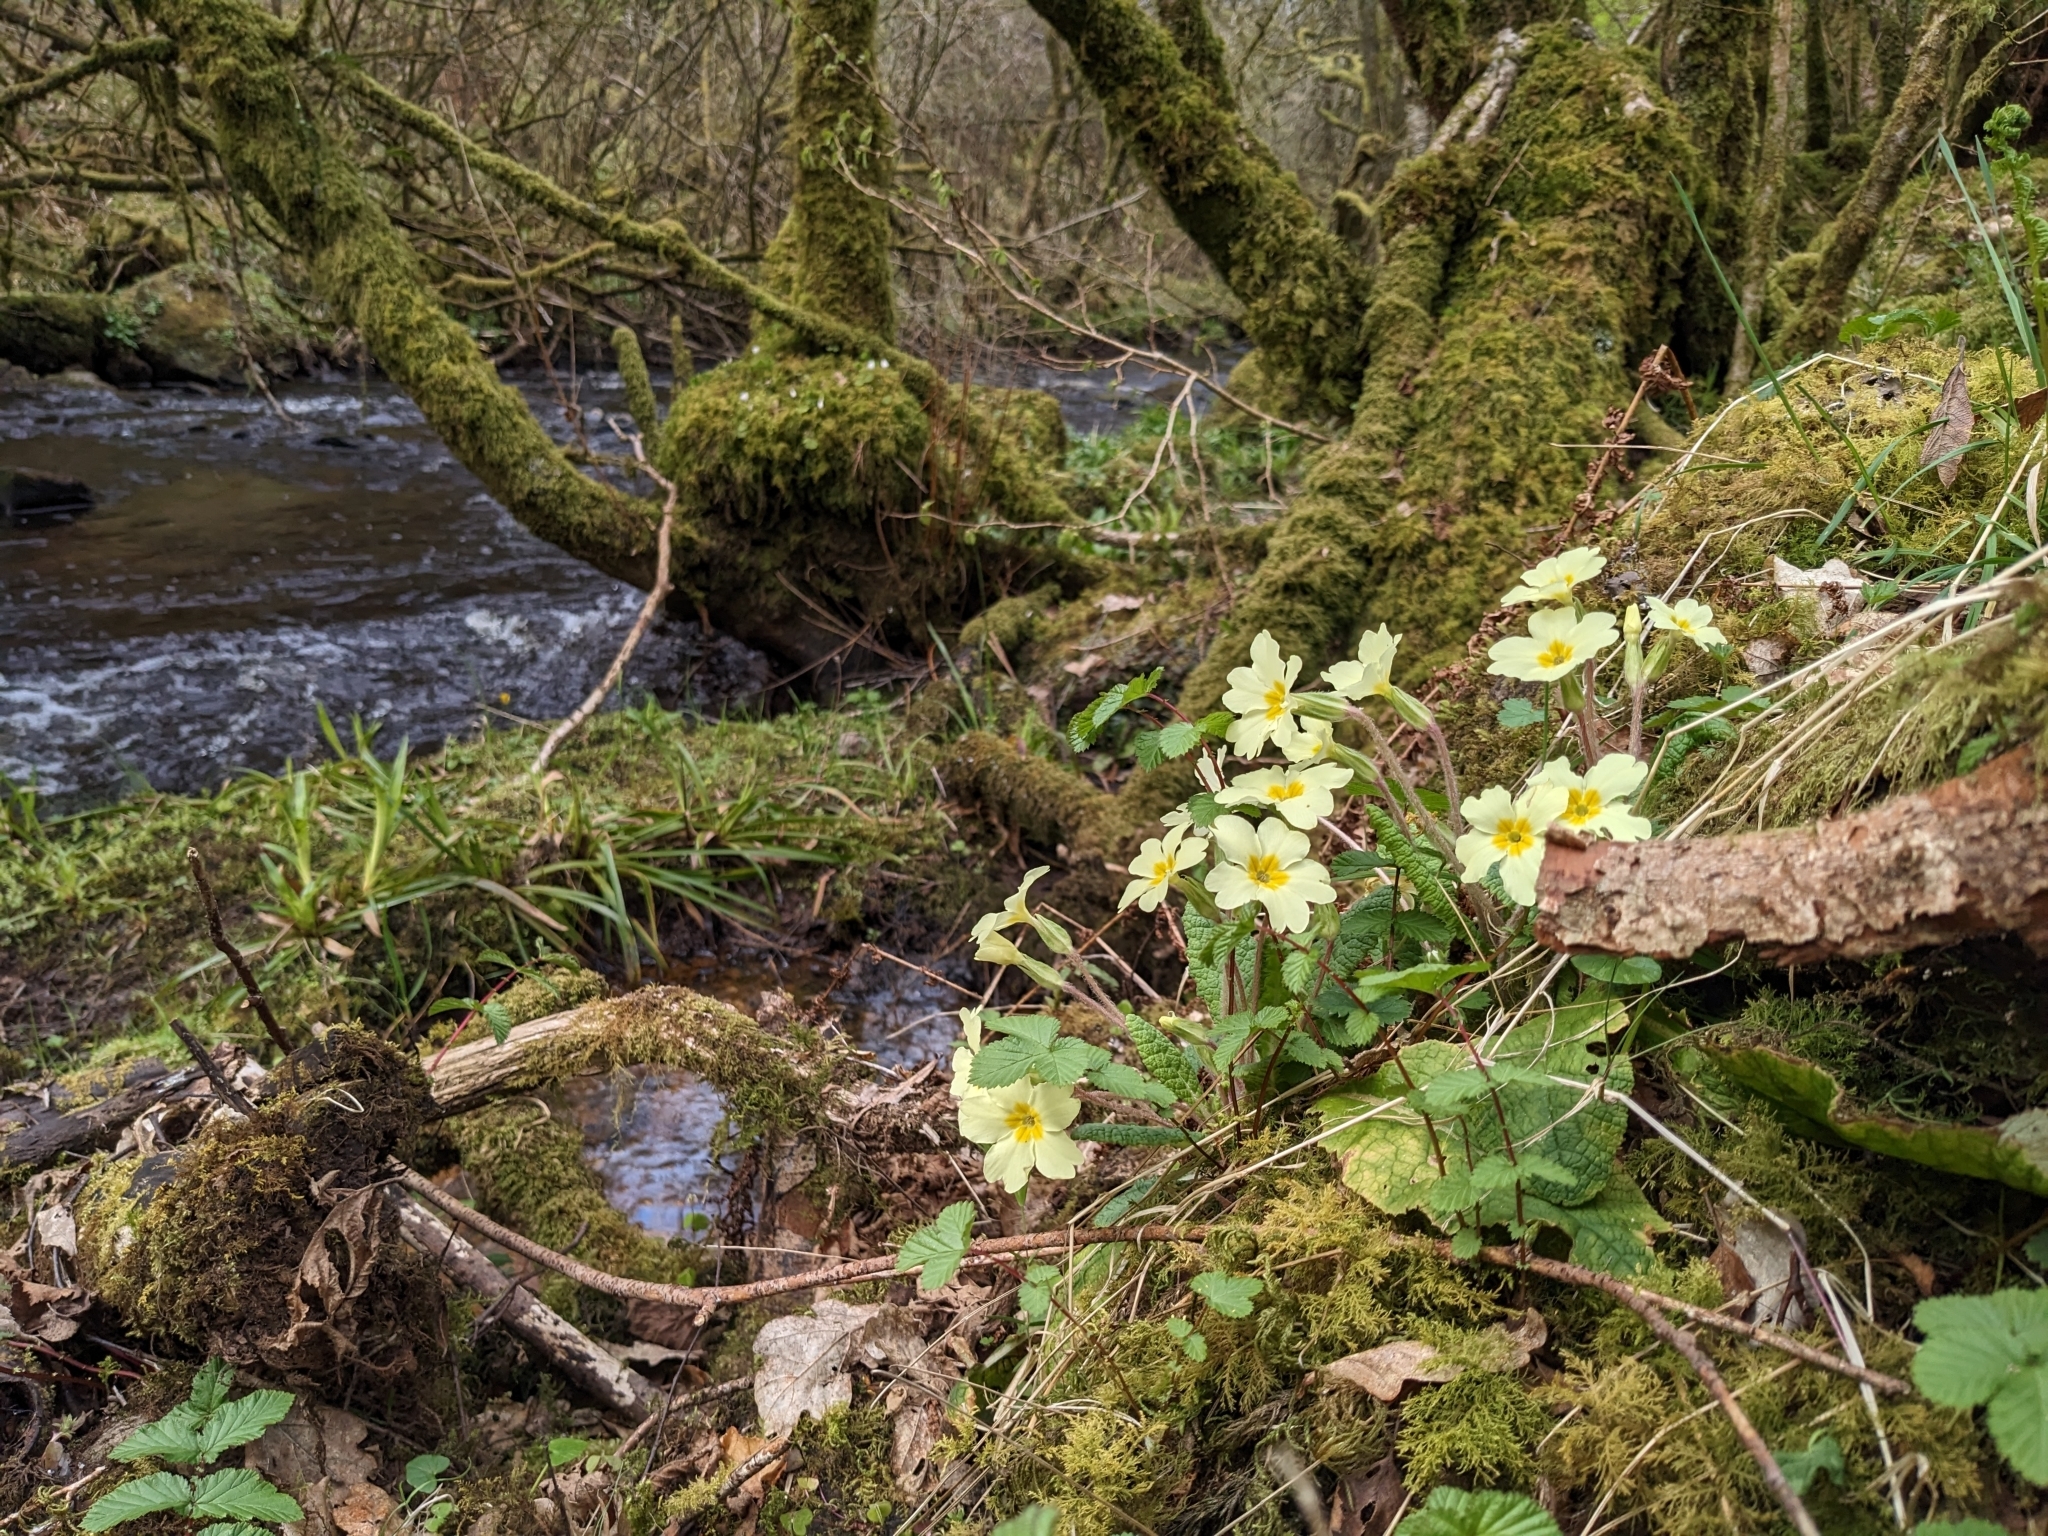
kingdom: Plantae
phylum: Tracheophyta
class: Magnoliopsida
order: Ericales
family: Primulaceae
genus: Primula
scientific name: Primula vulgaris
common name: Primrose
